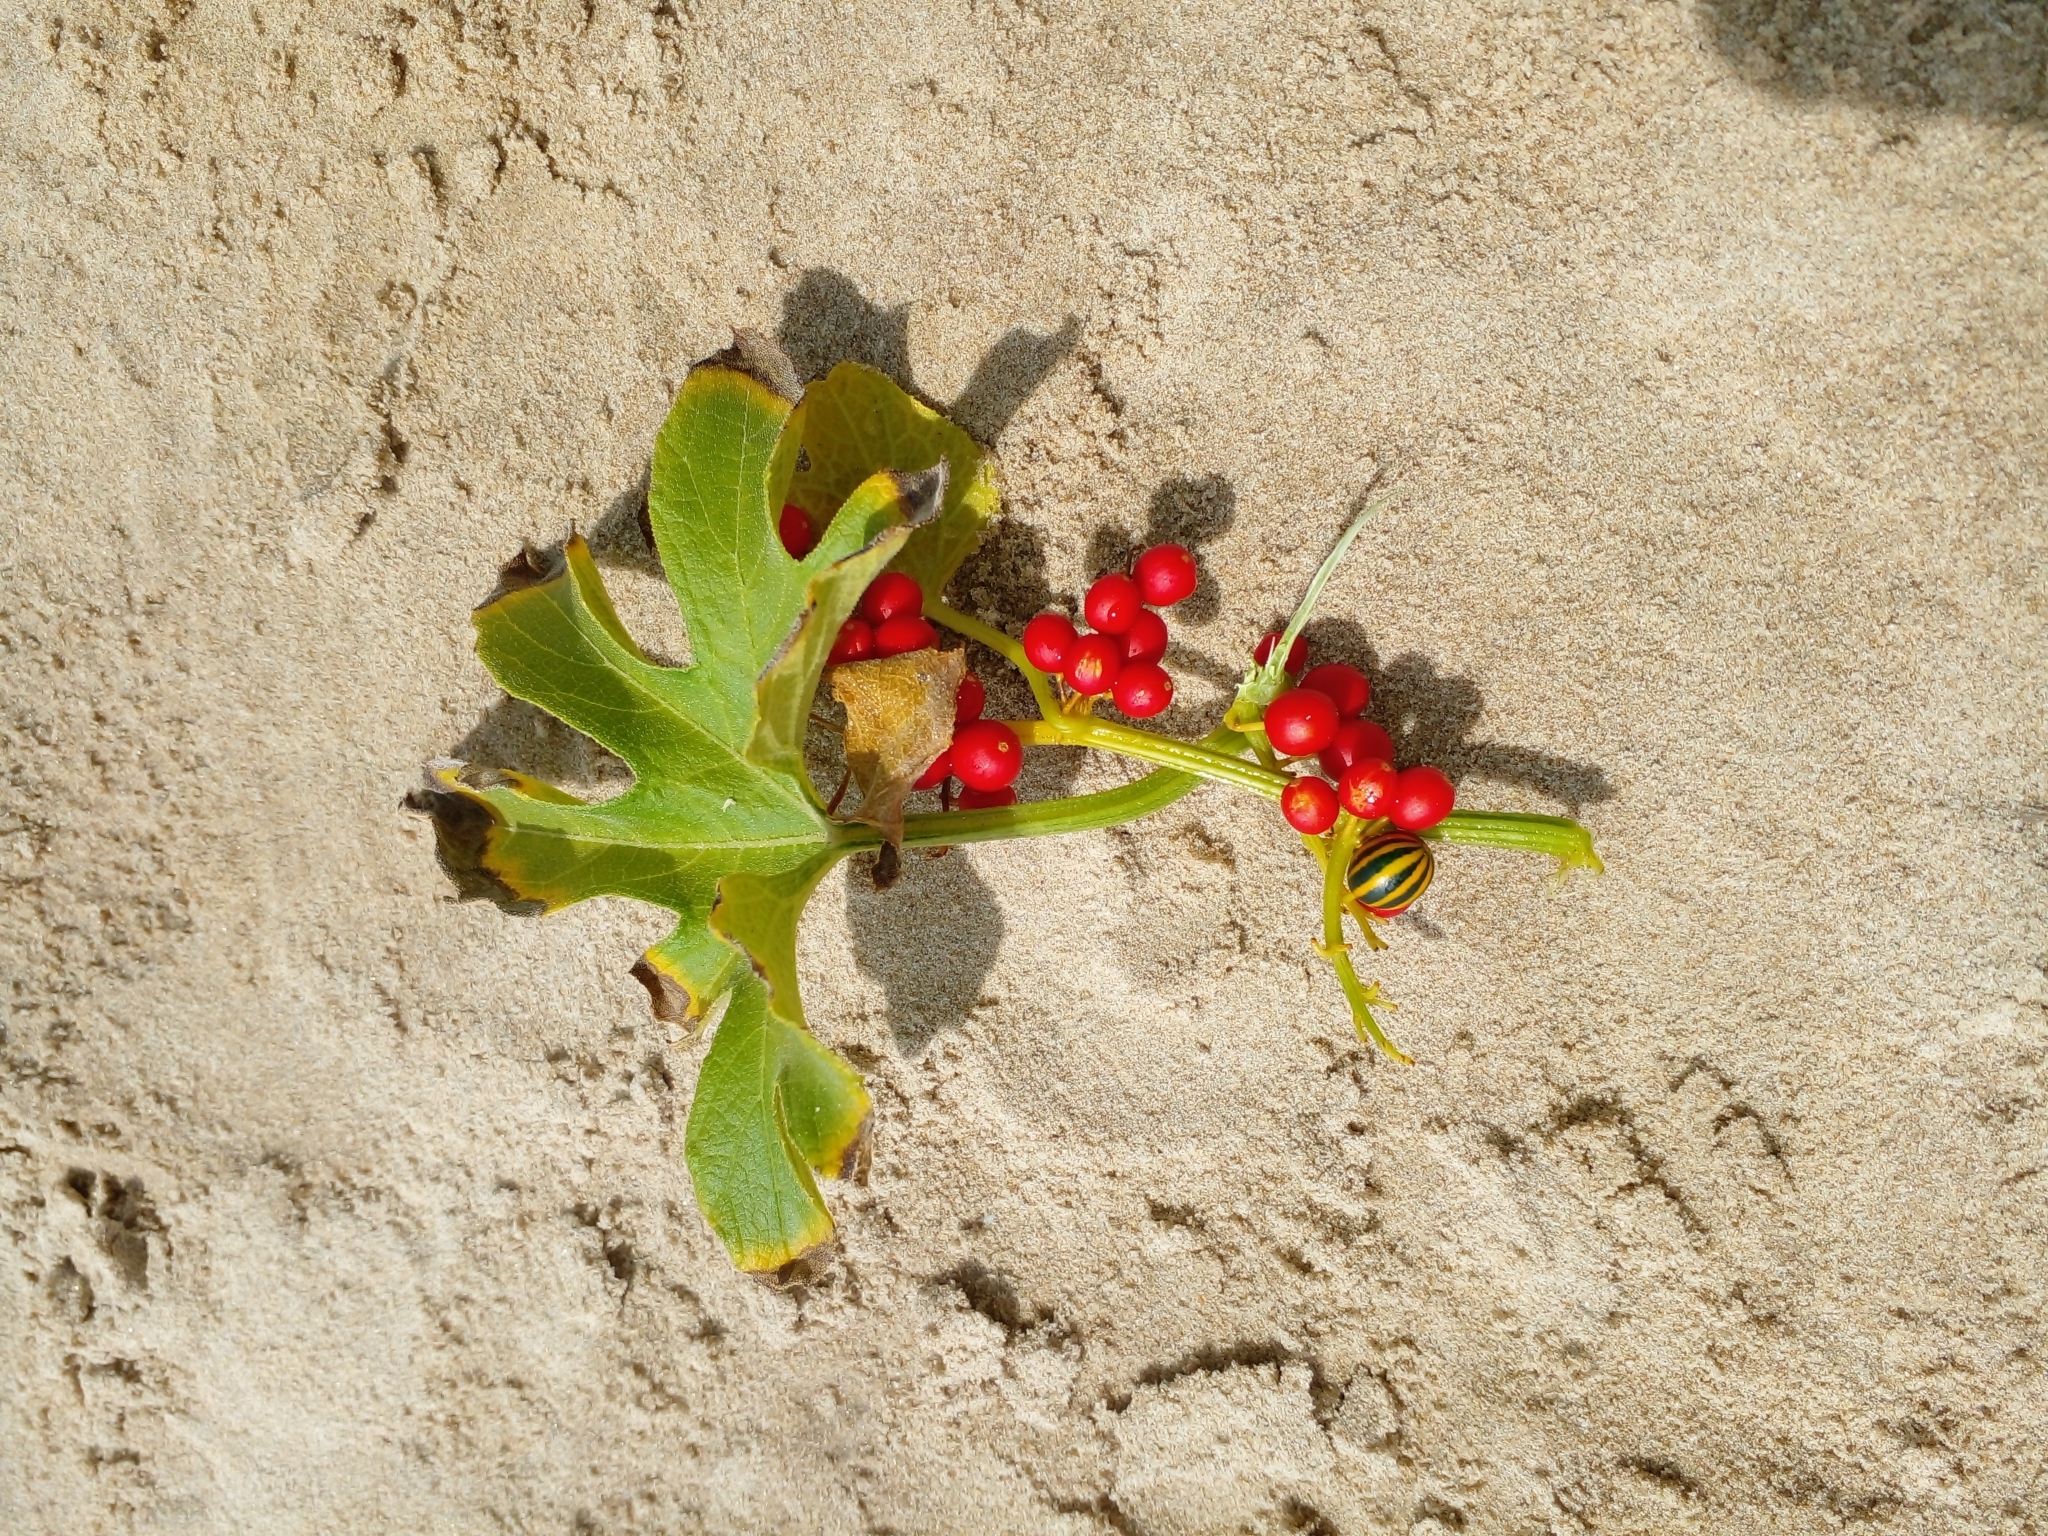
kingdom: Plantae
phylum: Tracheophyta
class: Magnoliopsida
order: Cucurbitales
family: Cucurbitaceae
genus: Cayaponia
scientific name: Cayaponia martiana
